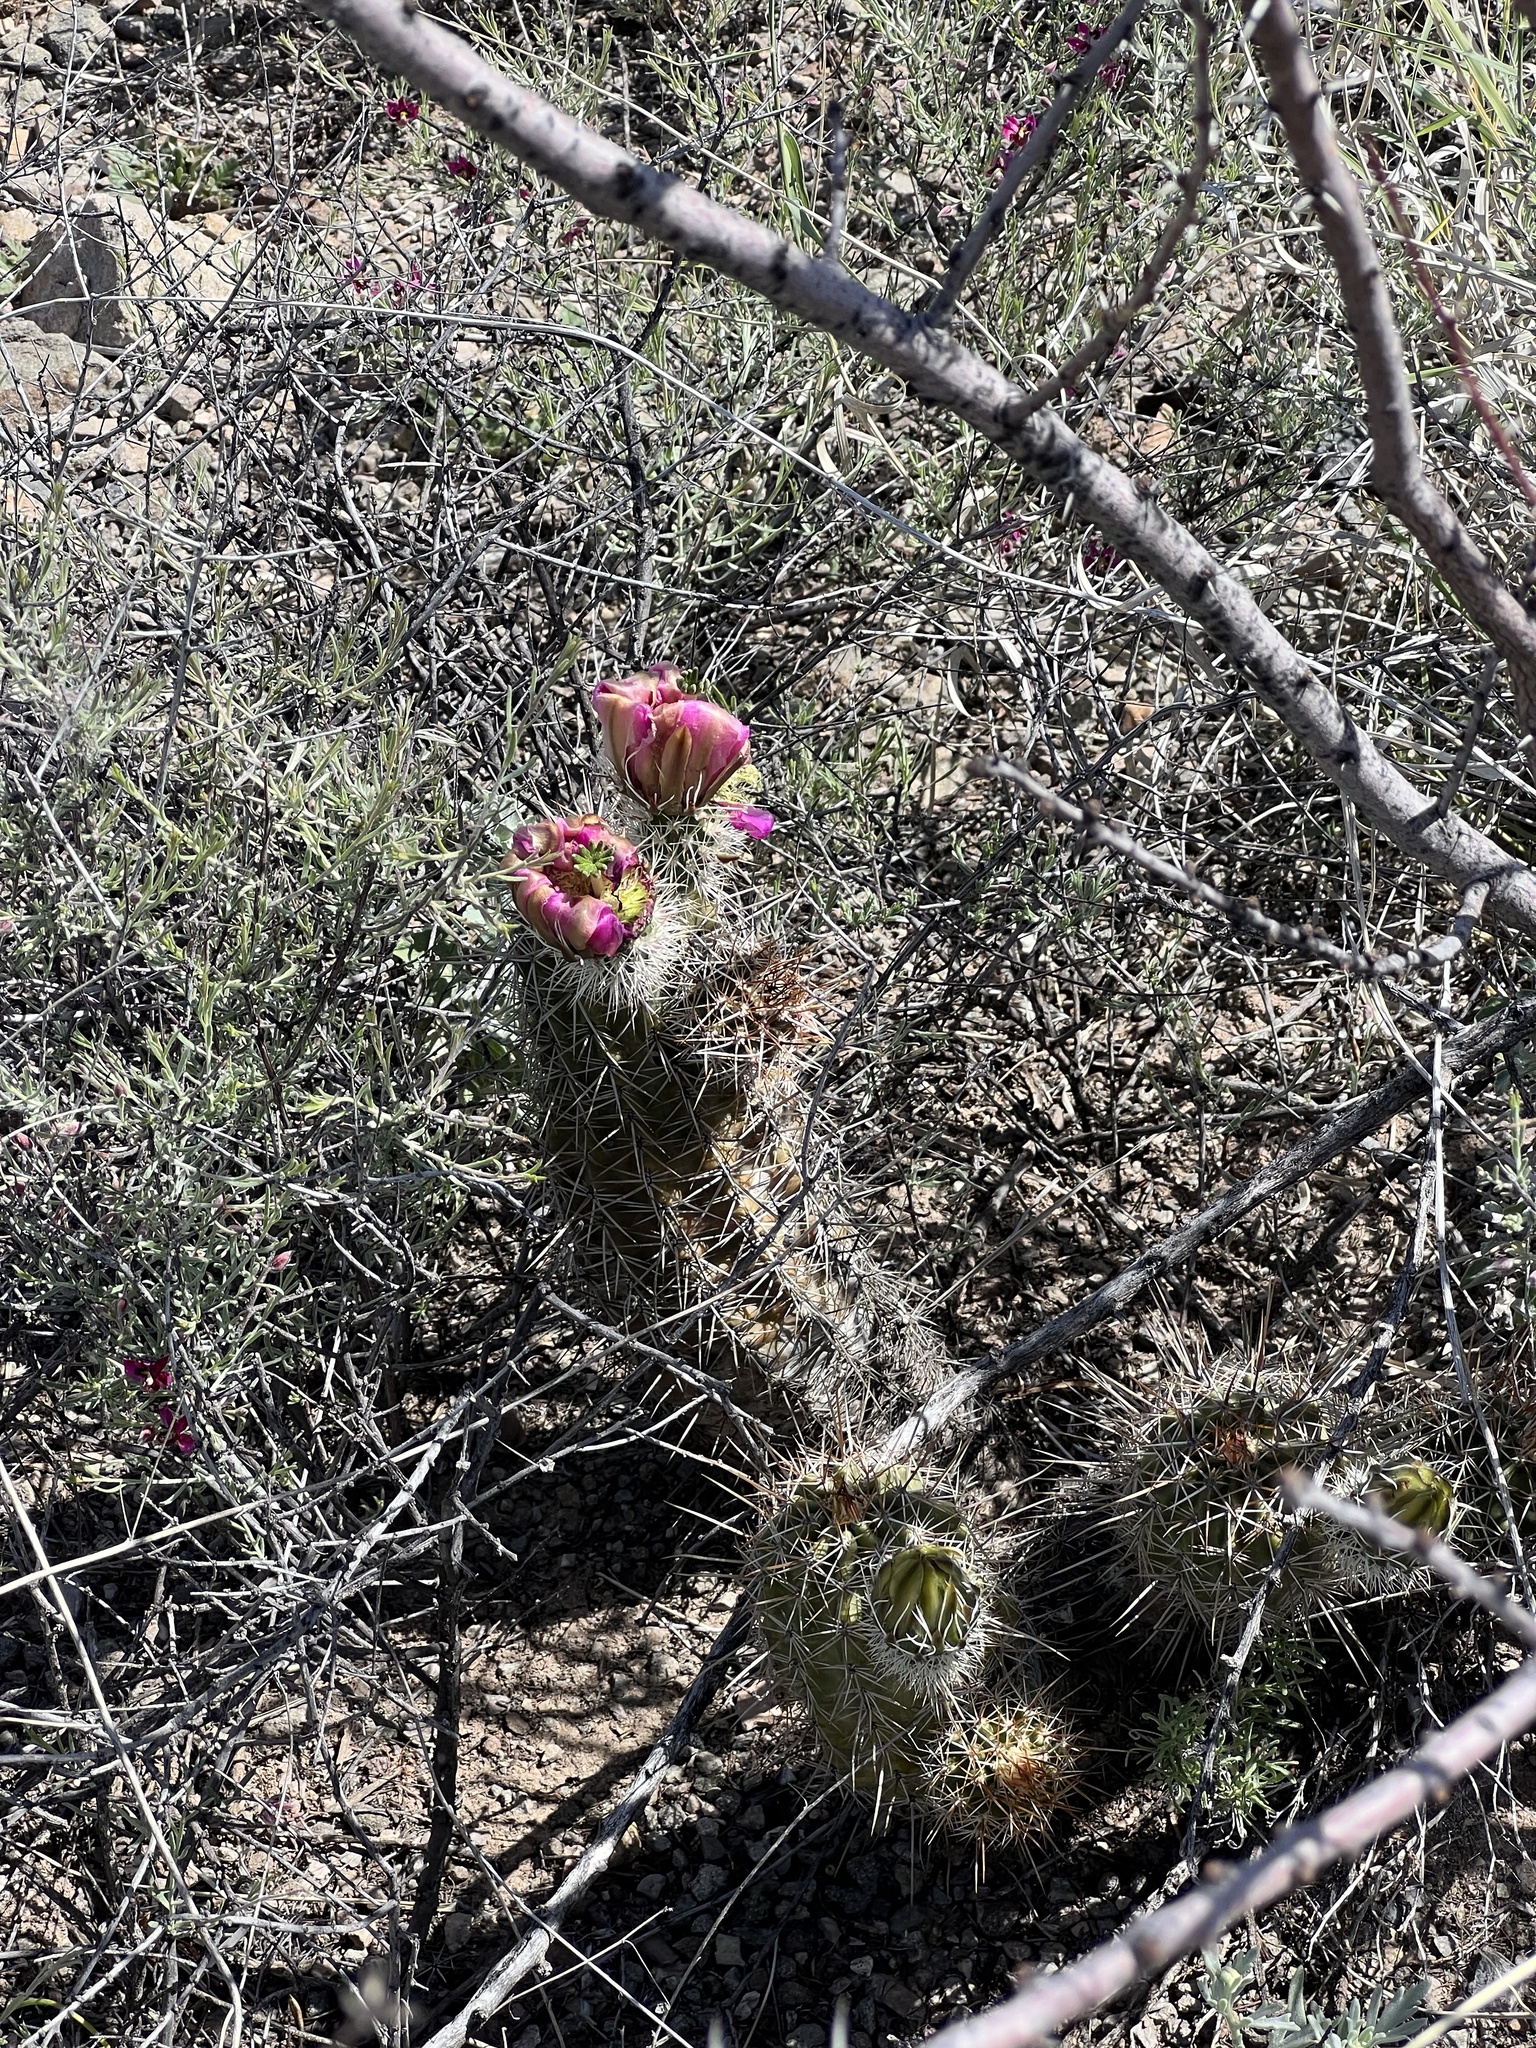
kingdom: Plantae
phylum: Tracheophyta
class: Magnoliopsida
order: Caryophyllales
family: Cactaceae
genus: Echinocereus
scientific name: Echinocereus fasciculatus
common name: Bundle hedgehog
